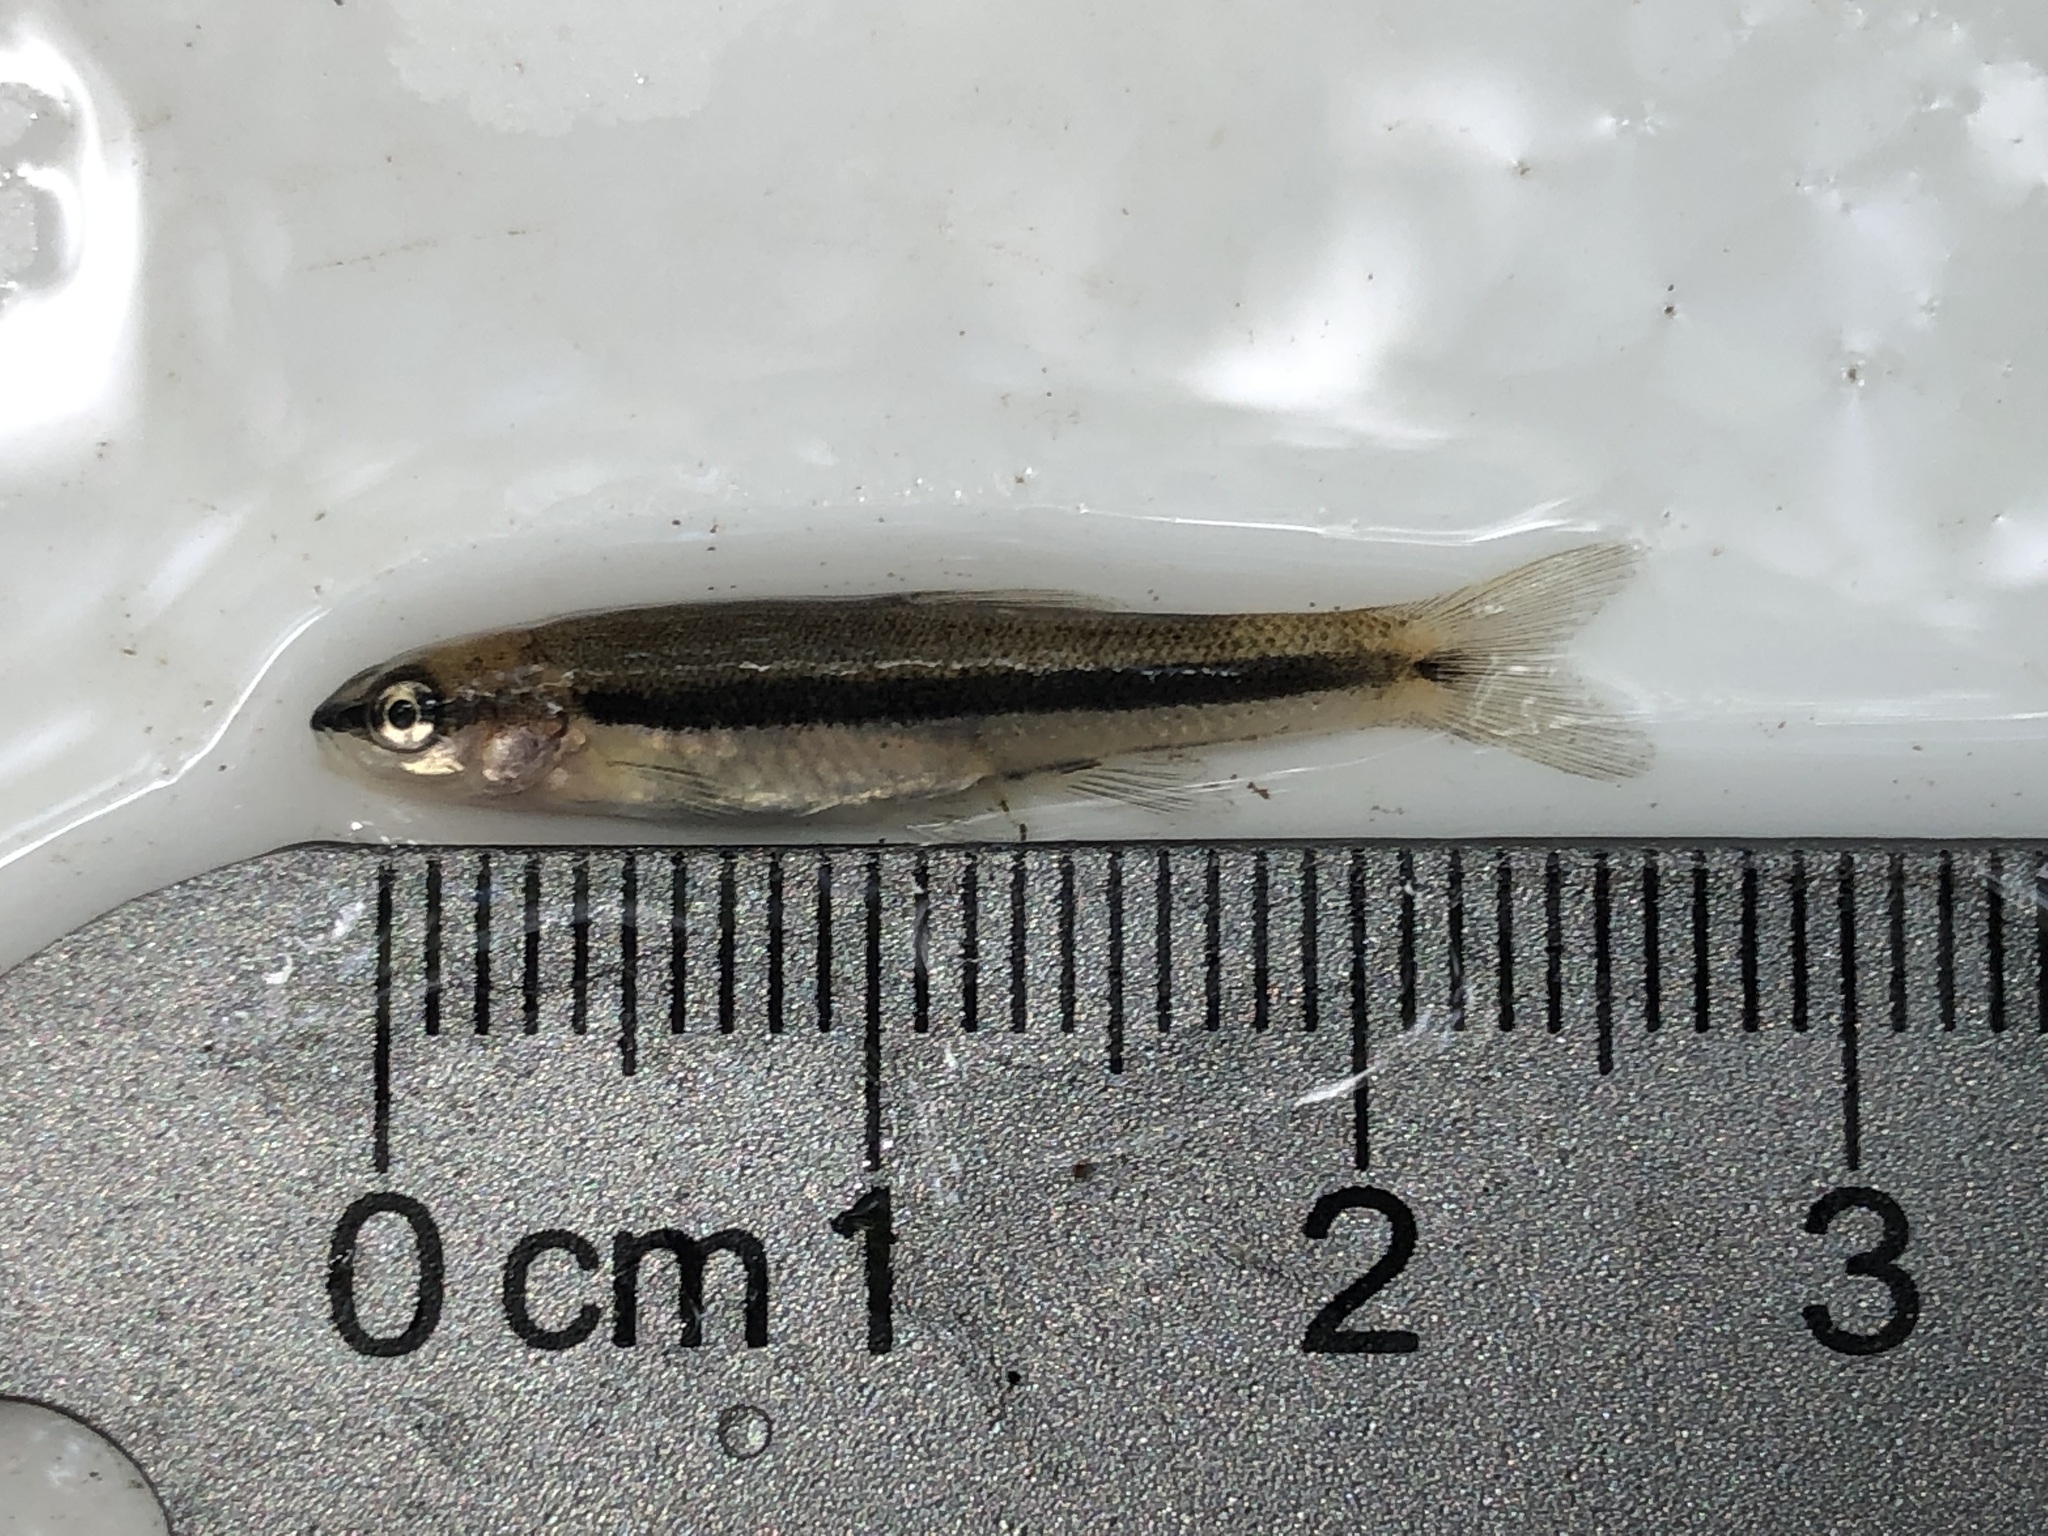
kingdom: Animalia
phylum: Chordata
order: Cypriniformes
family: Cyprinidae
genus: Rhinichthys
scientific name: Rhinichthys atratulus
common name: Eastern blacknose dace
